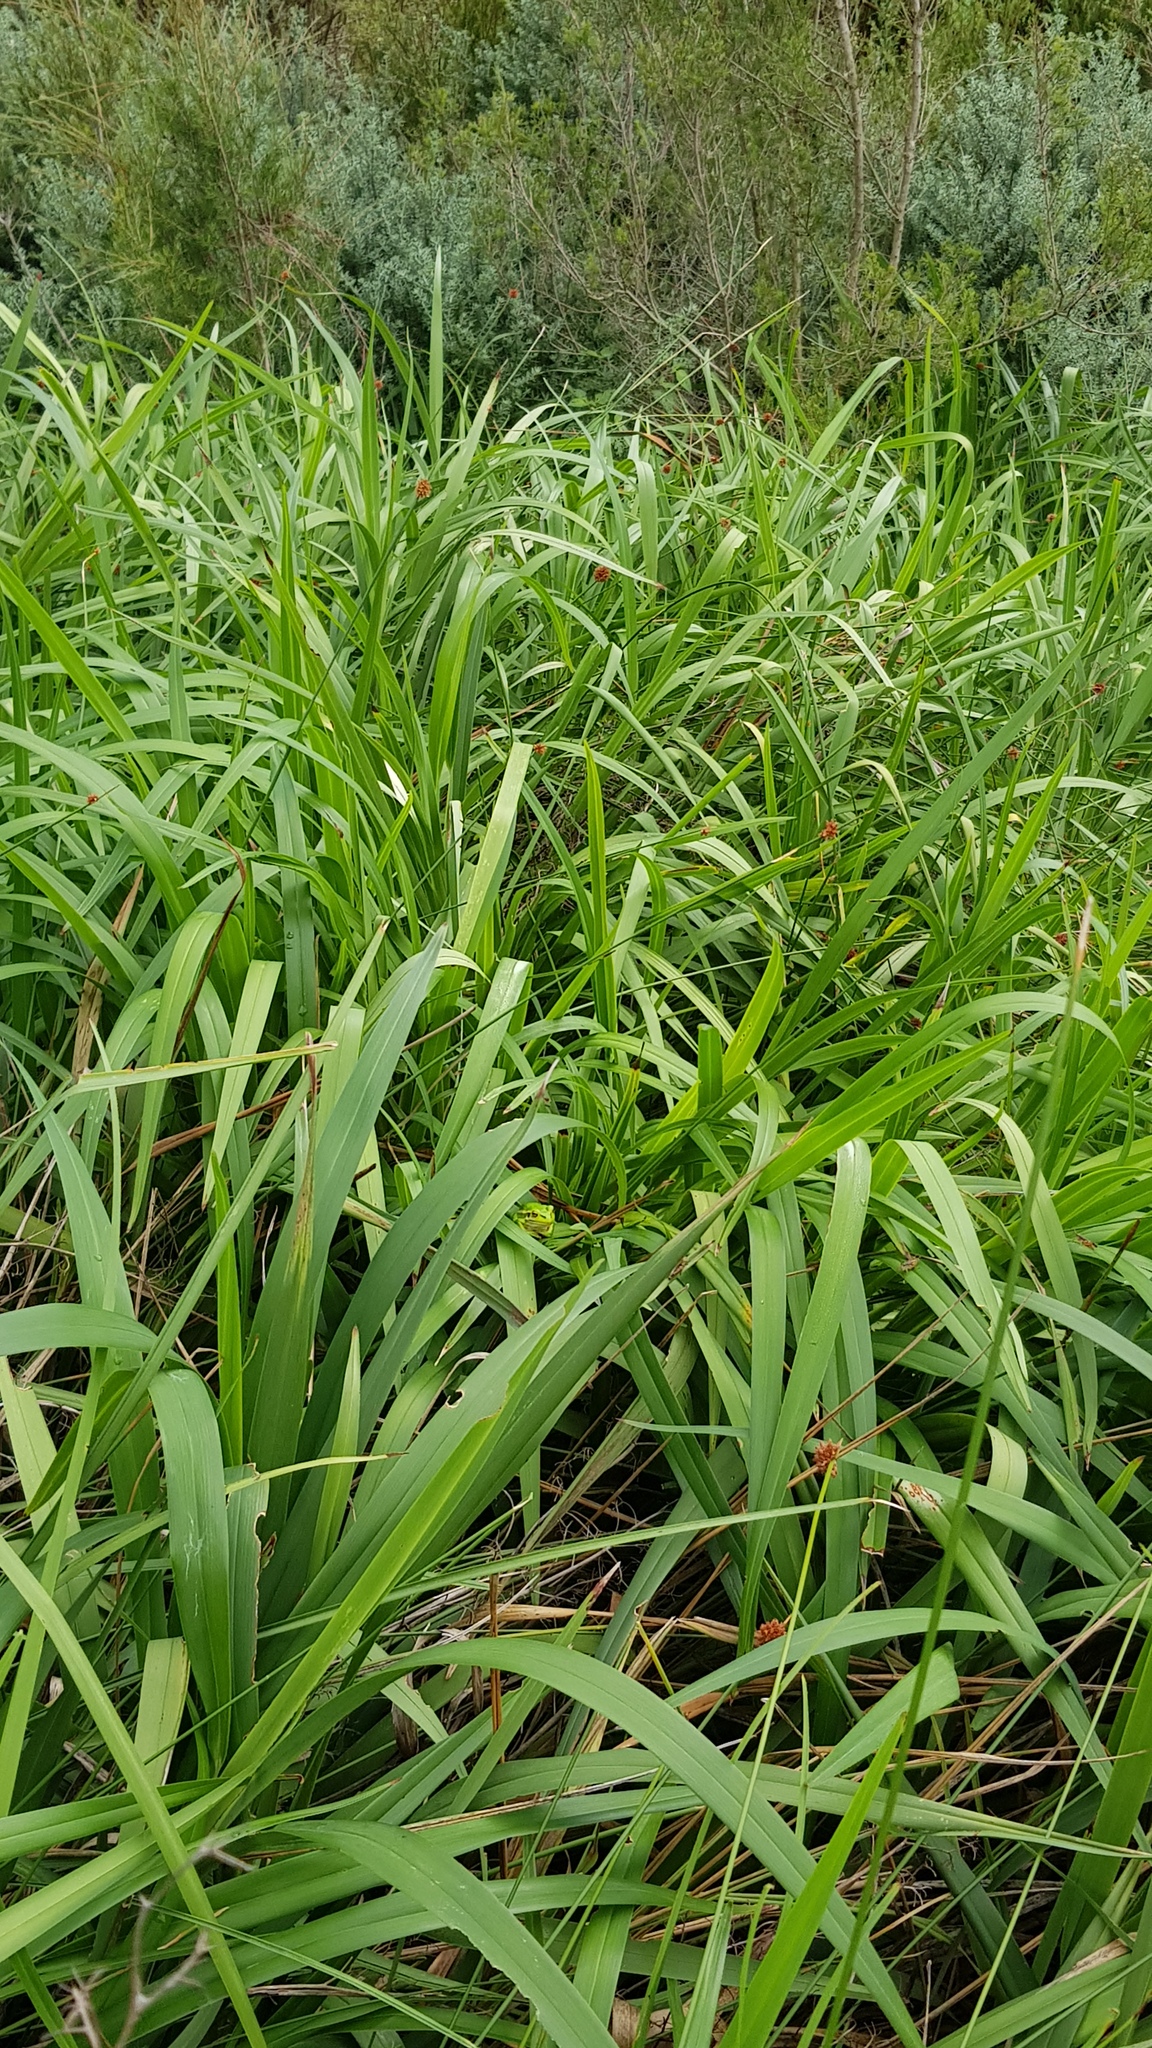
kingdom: Animalia
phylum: Chordata
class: Amphibia
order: Anura
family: Pelodryadidae
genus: Ranoidea
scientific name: Ranoidea aurea
